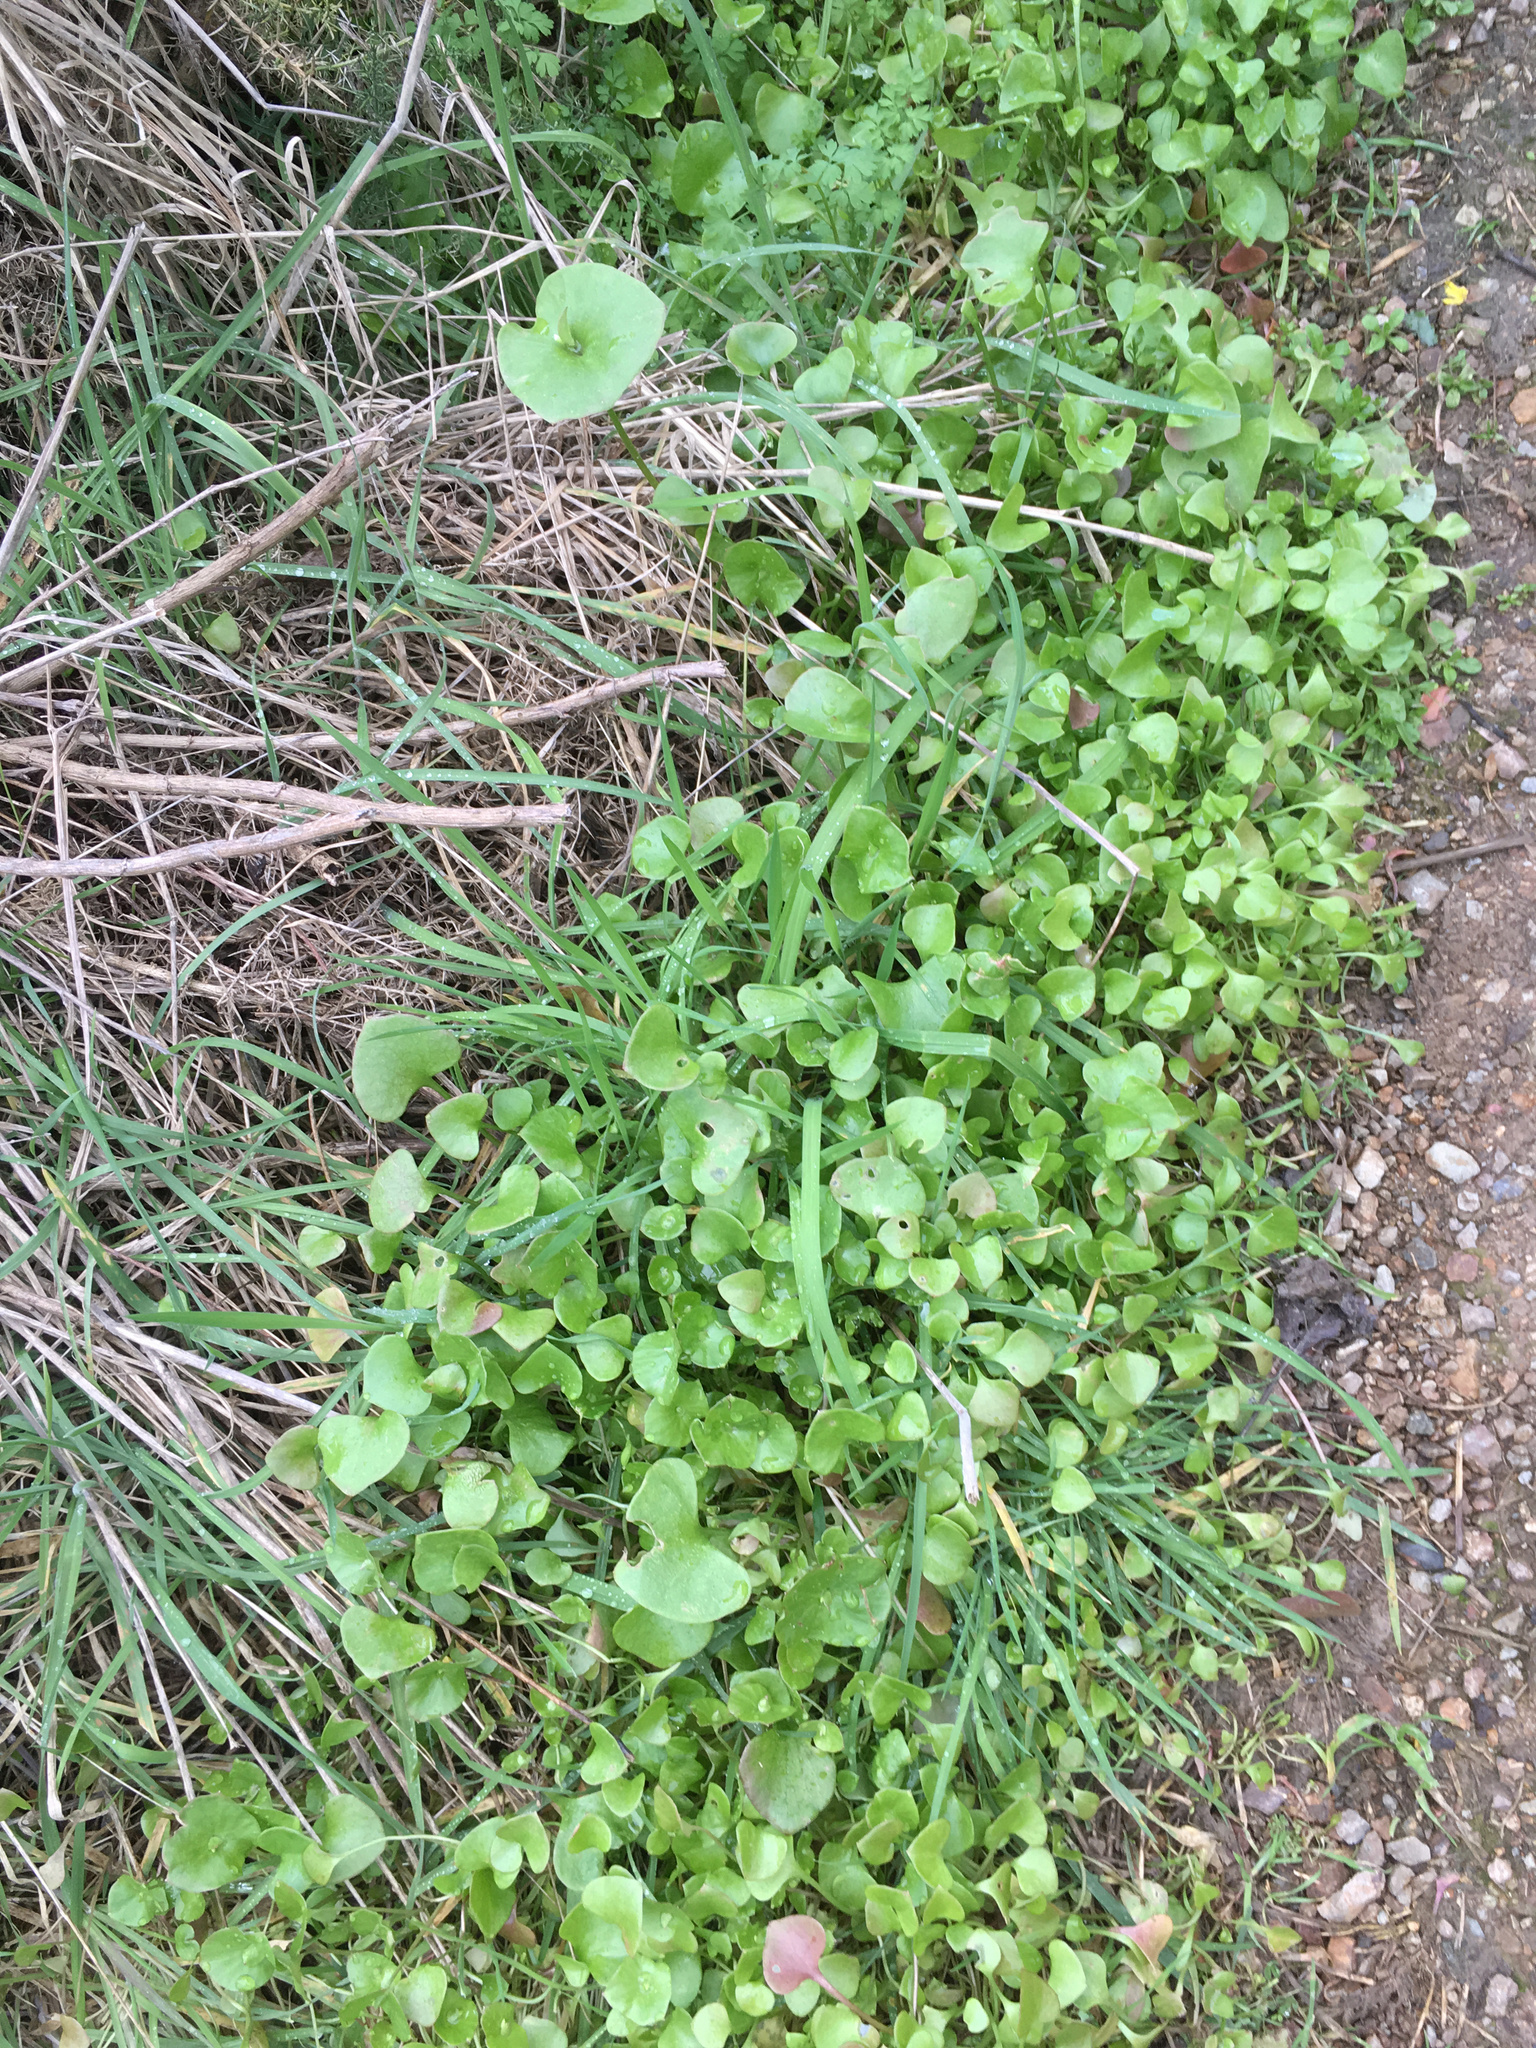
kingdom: Plantae
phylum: Tracheophyta
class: Magnoliopsida
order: Caryophyllales
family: Montiaceae
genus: Claytonia
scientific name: Claytonia perfoliata
